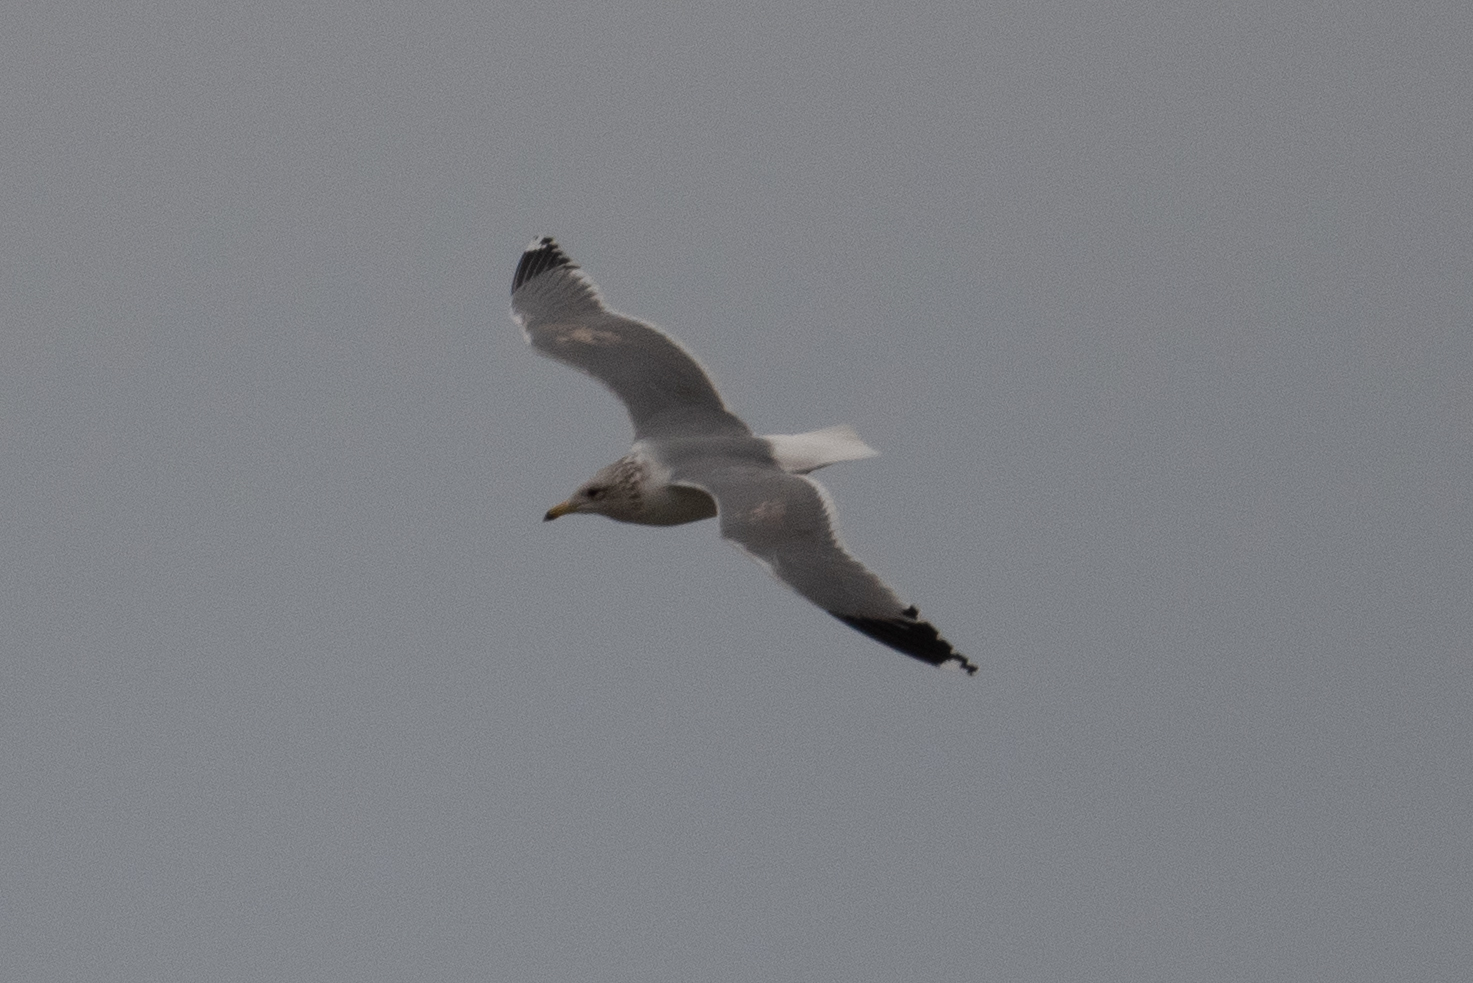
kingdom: Animalia
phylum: Chordata
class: Aves
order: Charadriiformes
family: Laridae
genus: Larus
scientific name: Larus californicus
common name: California gull
